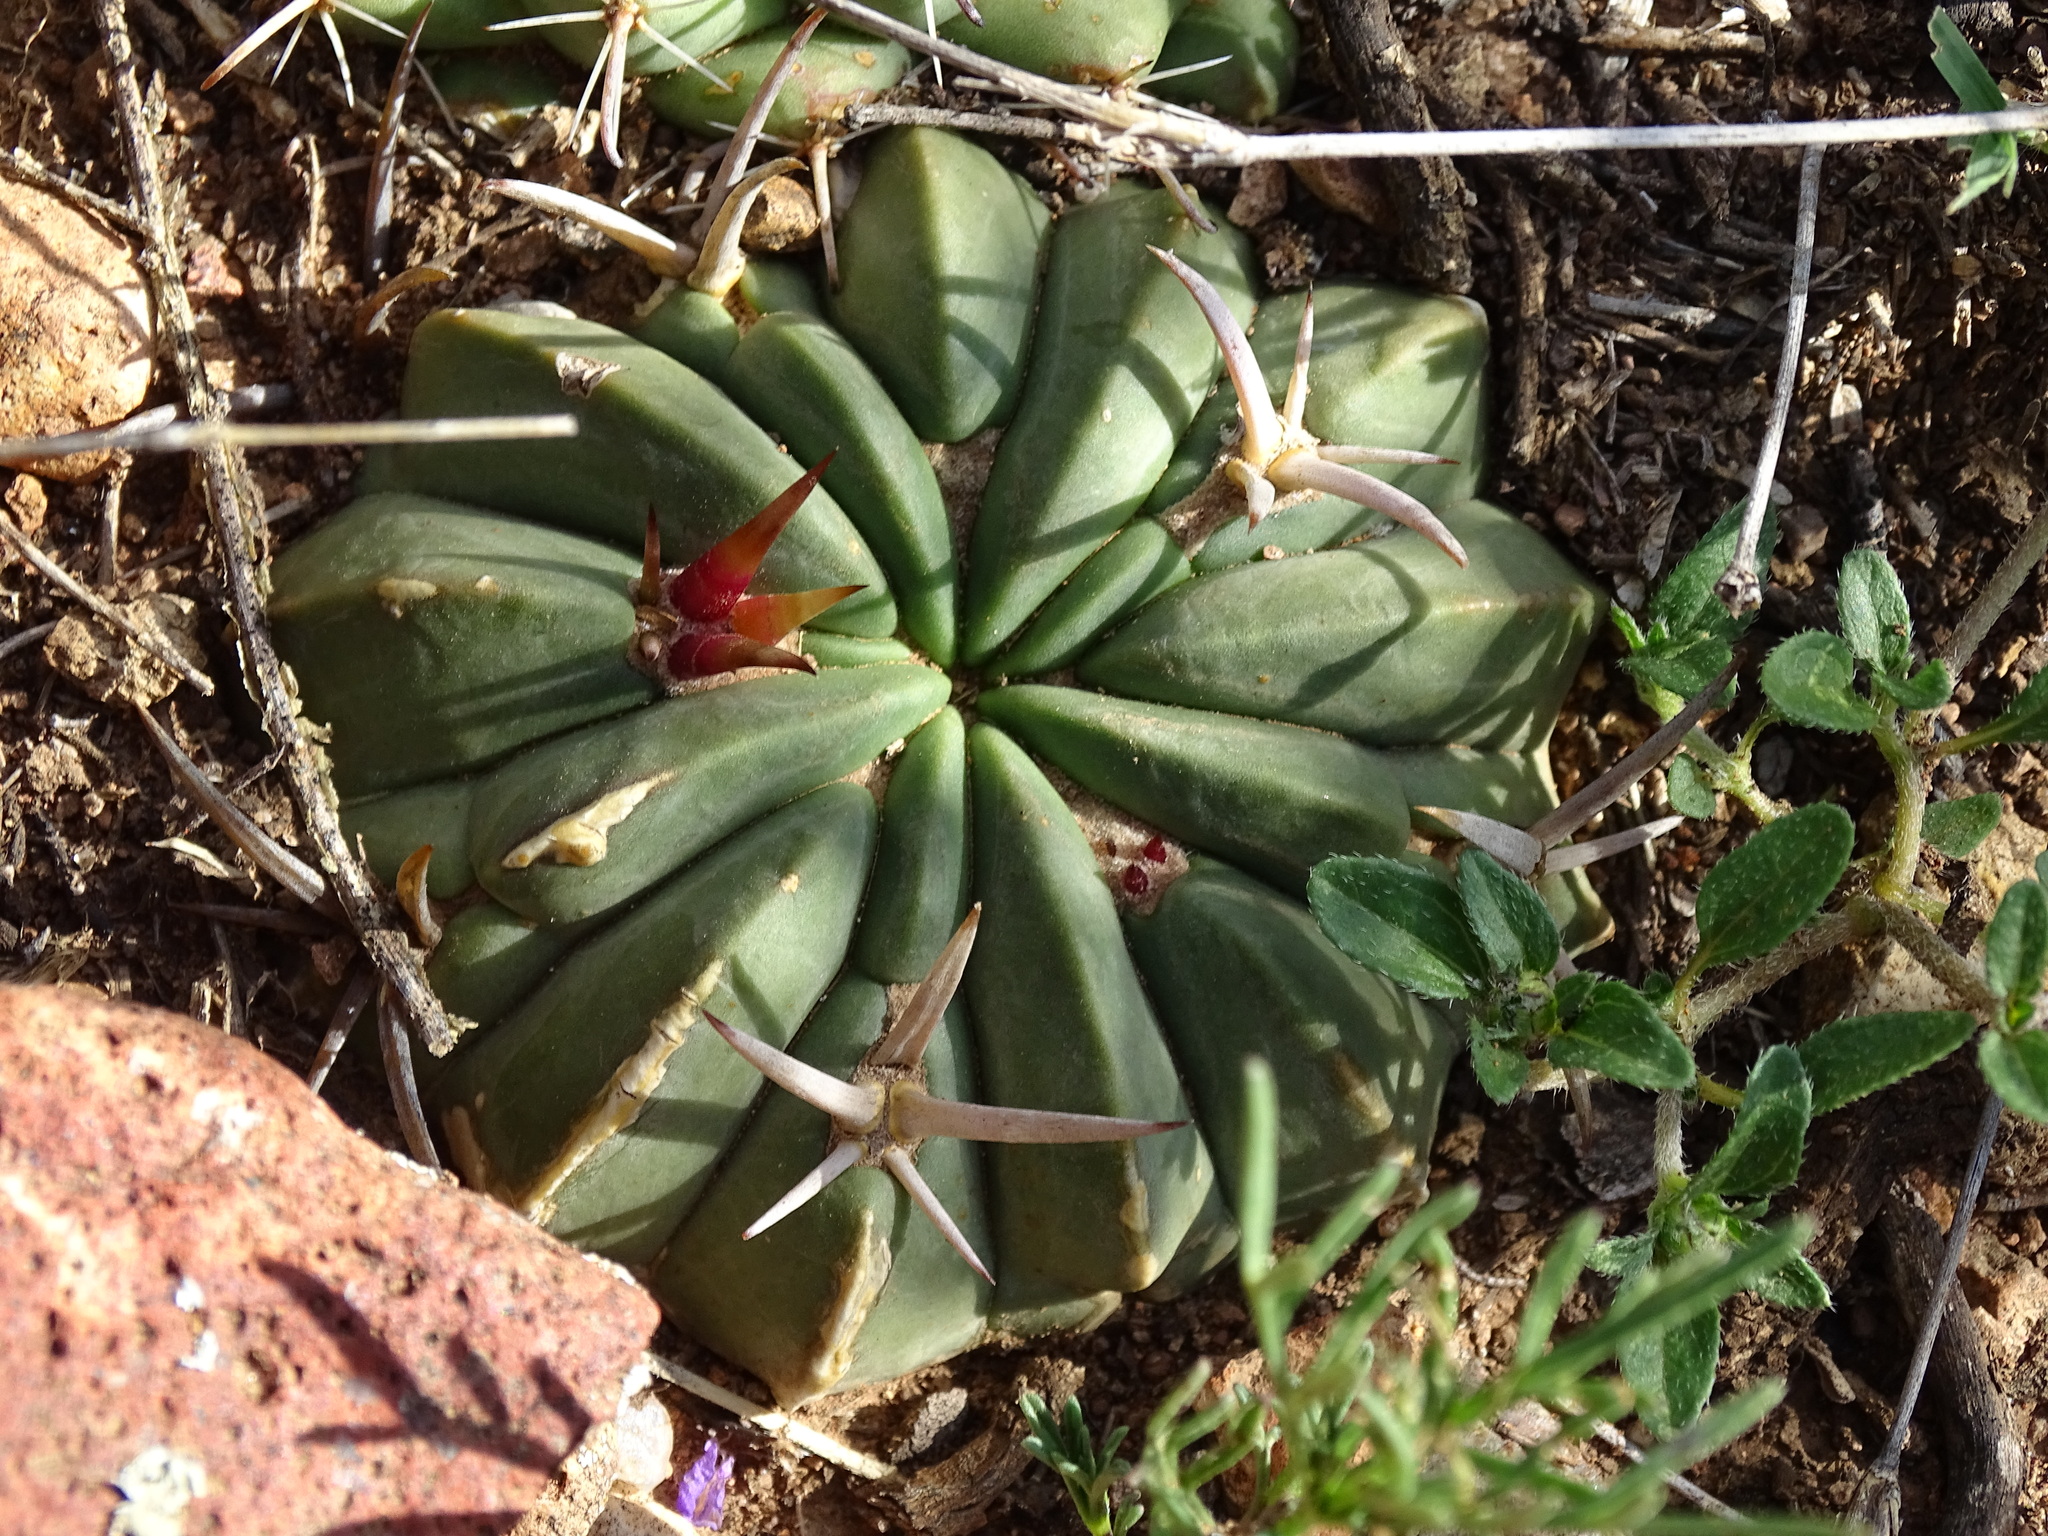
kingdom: Plantae
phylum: Tracheophyta
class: Magnoliopsida
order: Caryophyllales
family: Cactaceae
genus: Stenocactus
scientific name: Stenocactus coptonogonus
